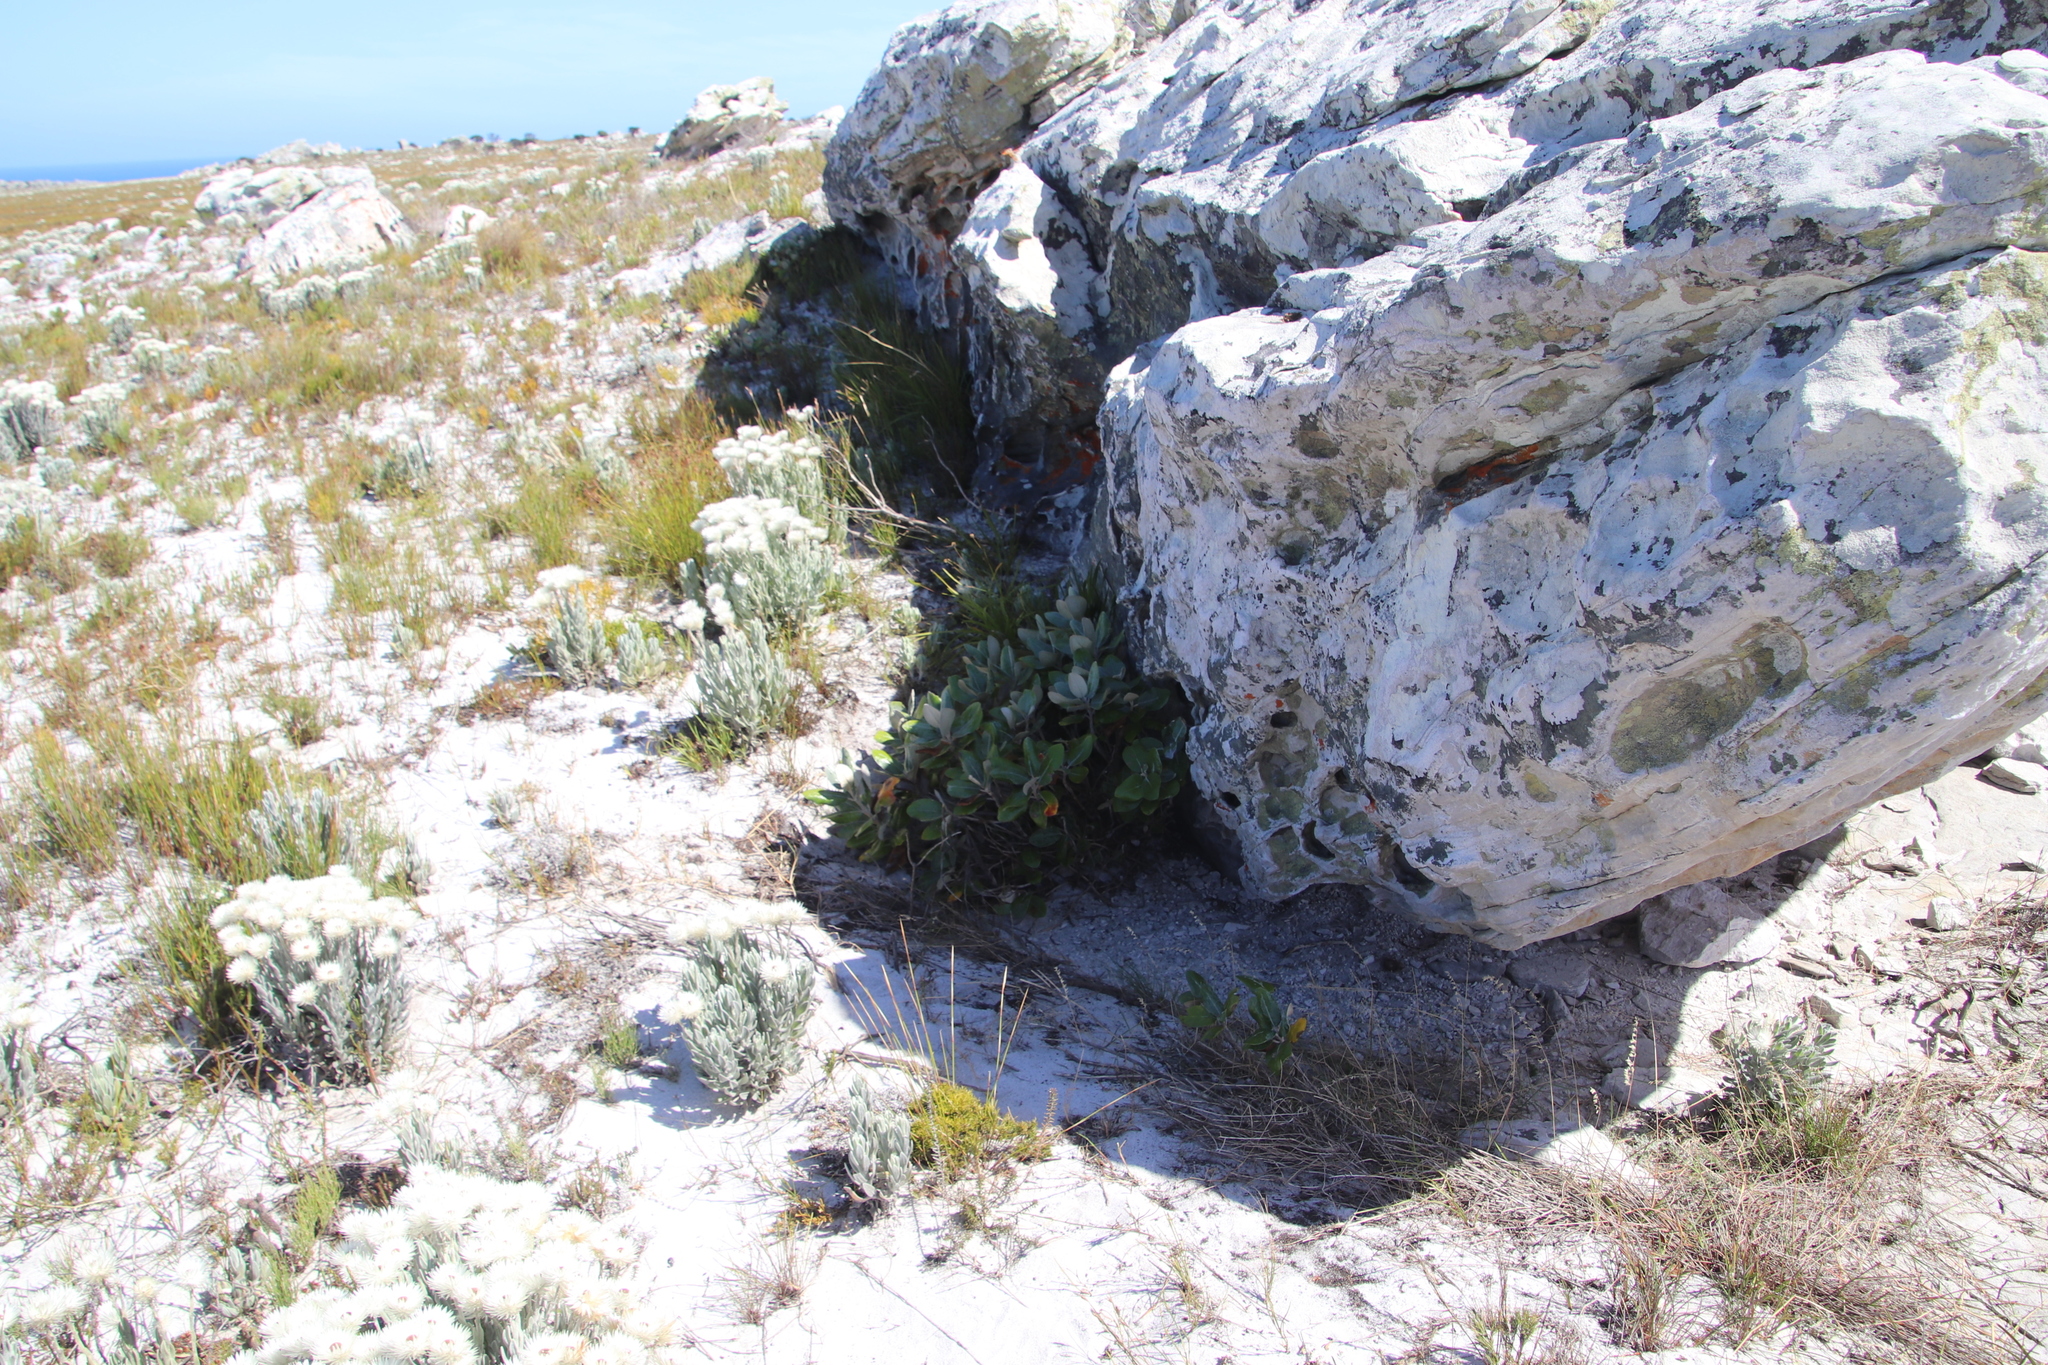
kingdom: Plantae
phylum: Tracheophyta
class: Magnoliopsida
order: Asterales
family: Asteraceae
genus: Capelio
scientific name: Capelio tabularis
